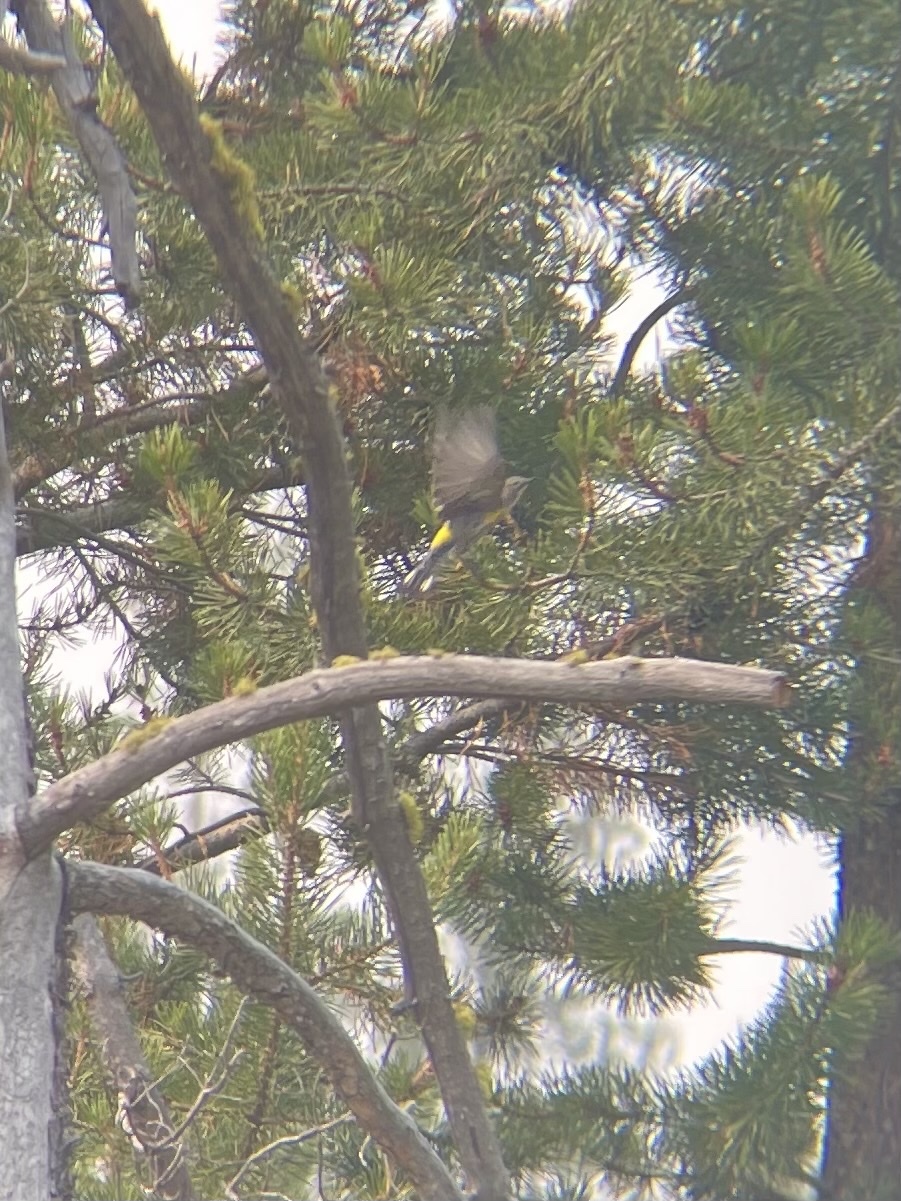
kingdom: Animalia
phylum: Chordata
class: Aves
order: Passeriformes
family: Parulidae
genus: Setophaga
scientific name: Setophaga coronata
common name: Myrtle warbler
